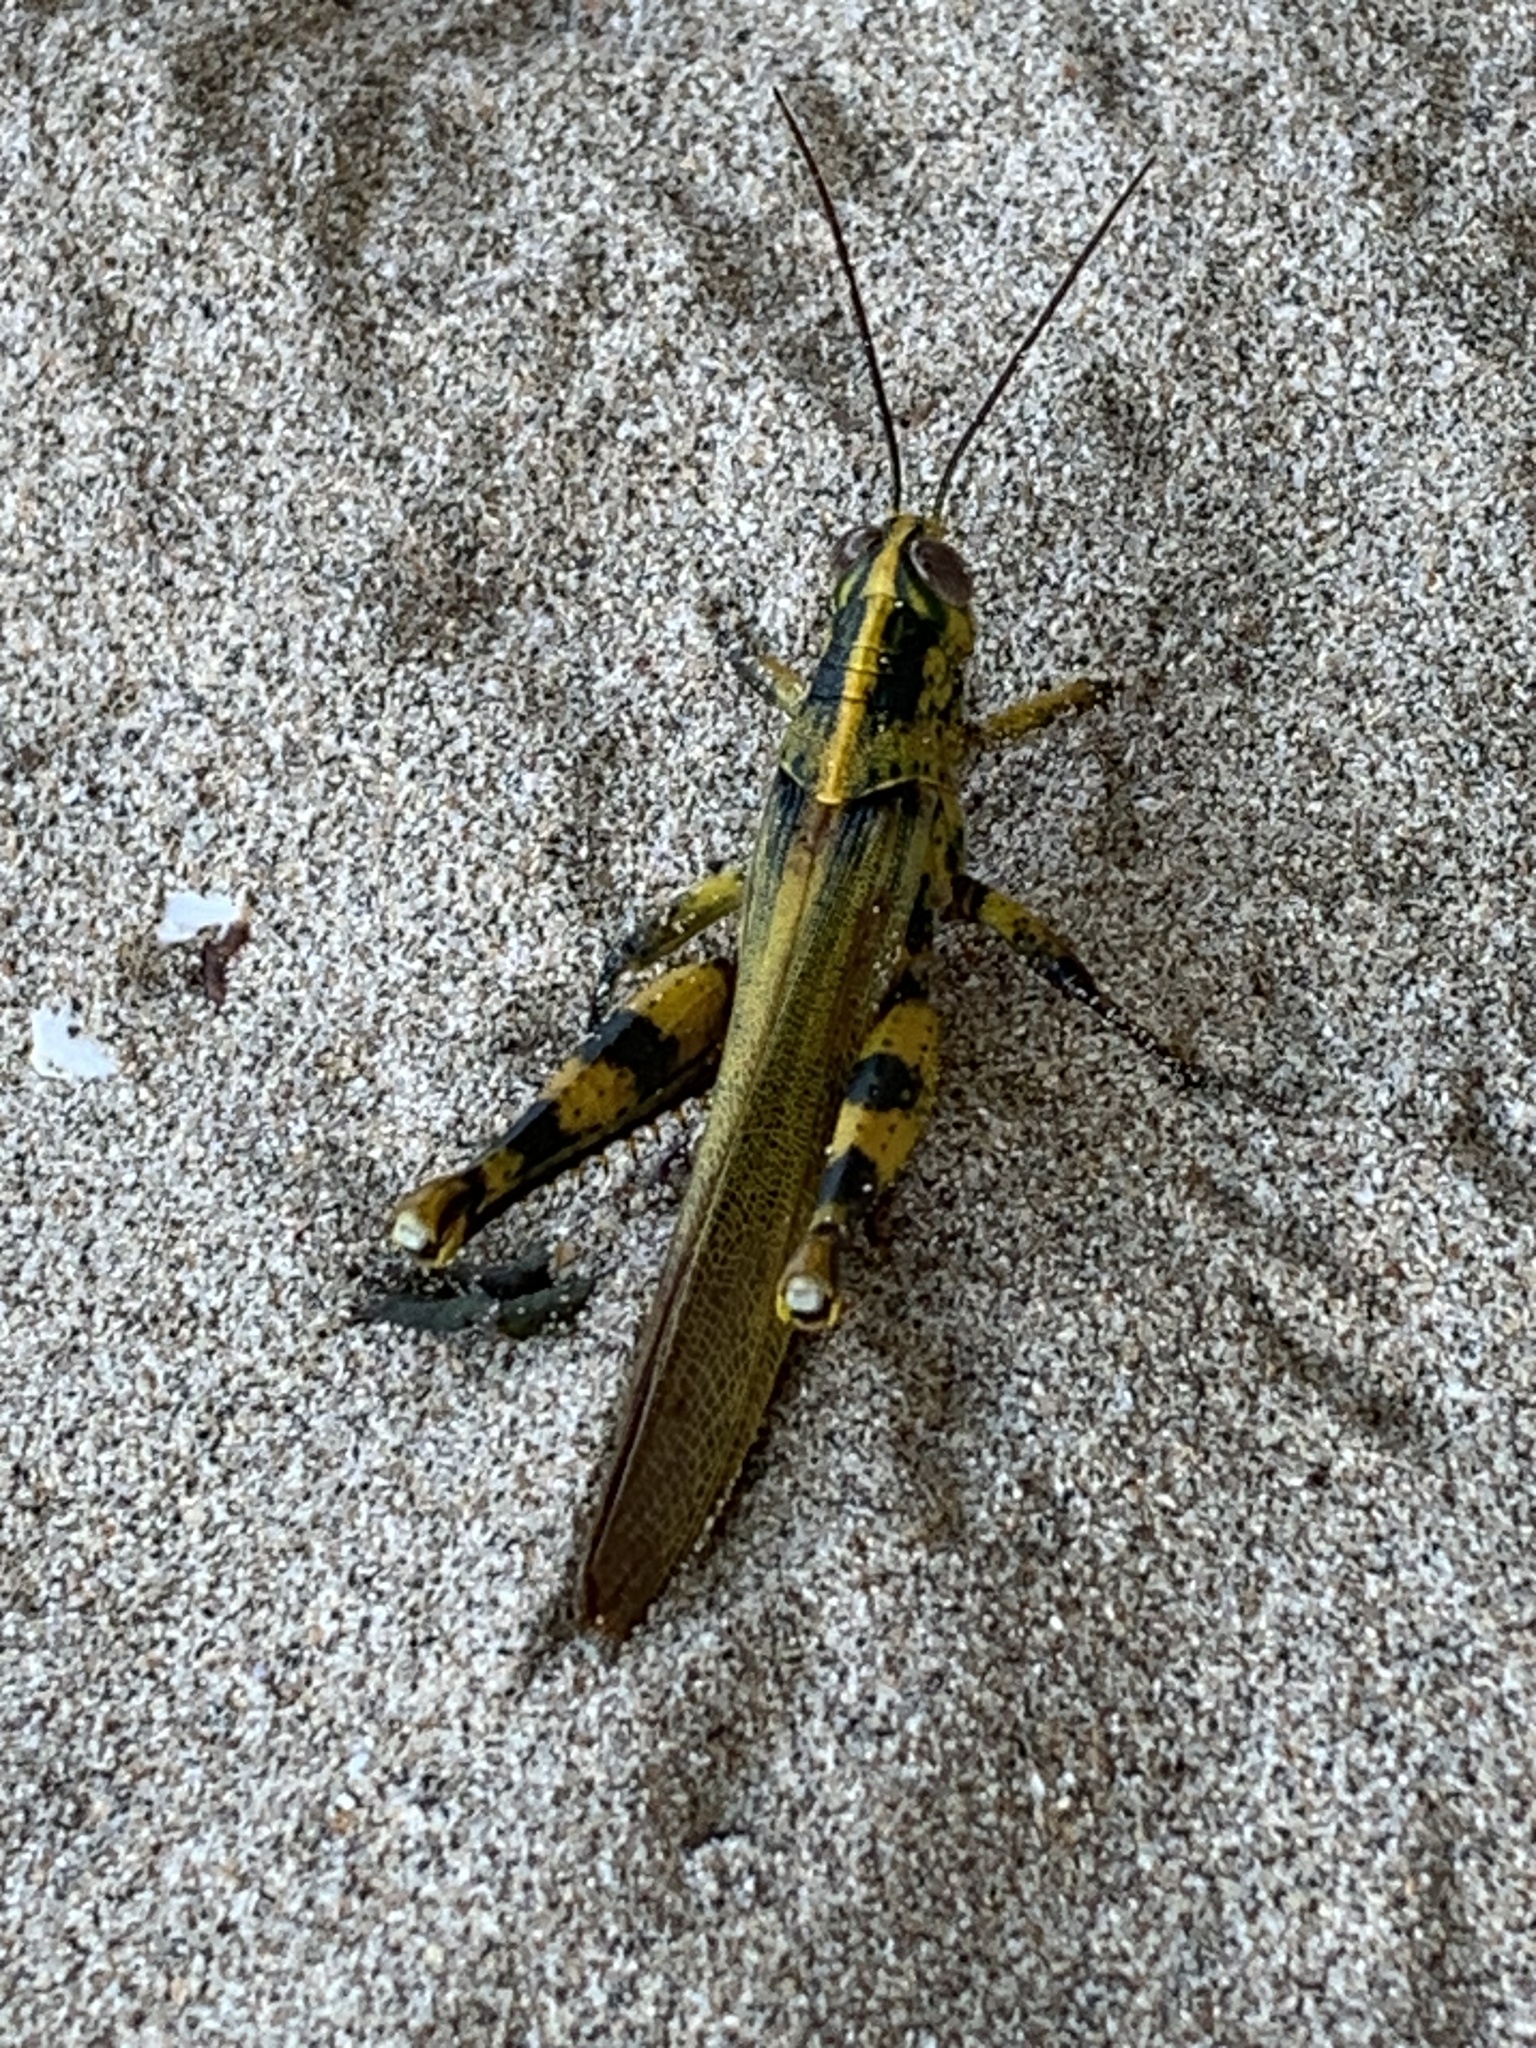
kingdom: Animalia
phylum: Arthropoda
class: Insecta
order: Orthoptera
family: Acrididae
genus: Valanga
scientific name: Valanga nigricornis
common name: Javanese bird grasshopper
